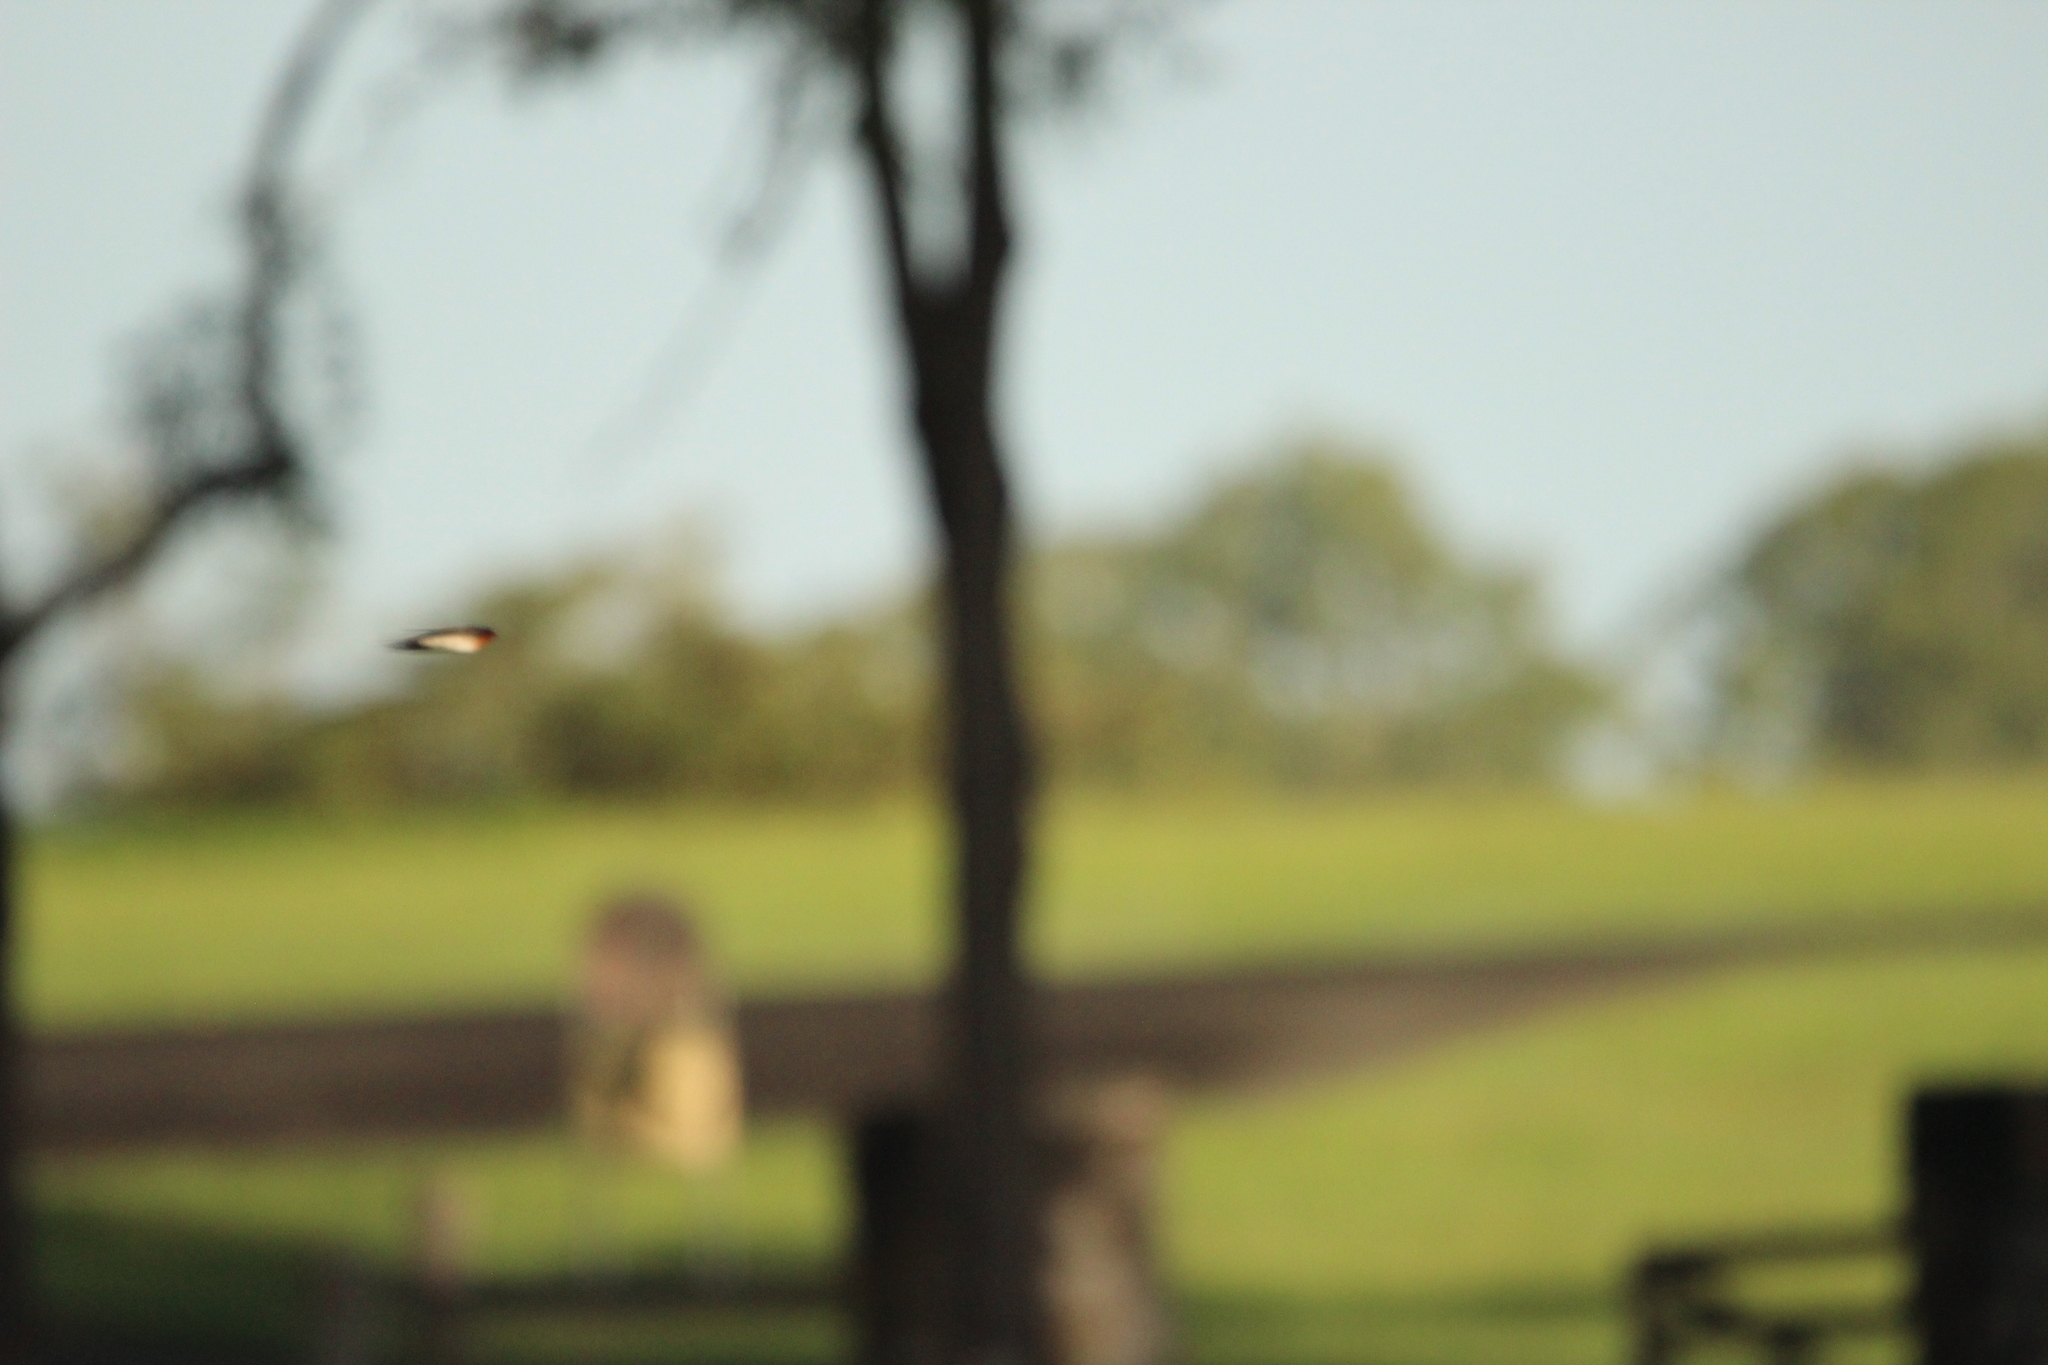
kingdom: Animalia
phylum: Chordata
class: Aves
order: Passeriformes
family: Hirundinidae
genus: Hirundo
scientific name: Hirundo neoxena
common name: Welcome swallow
